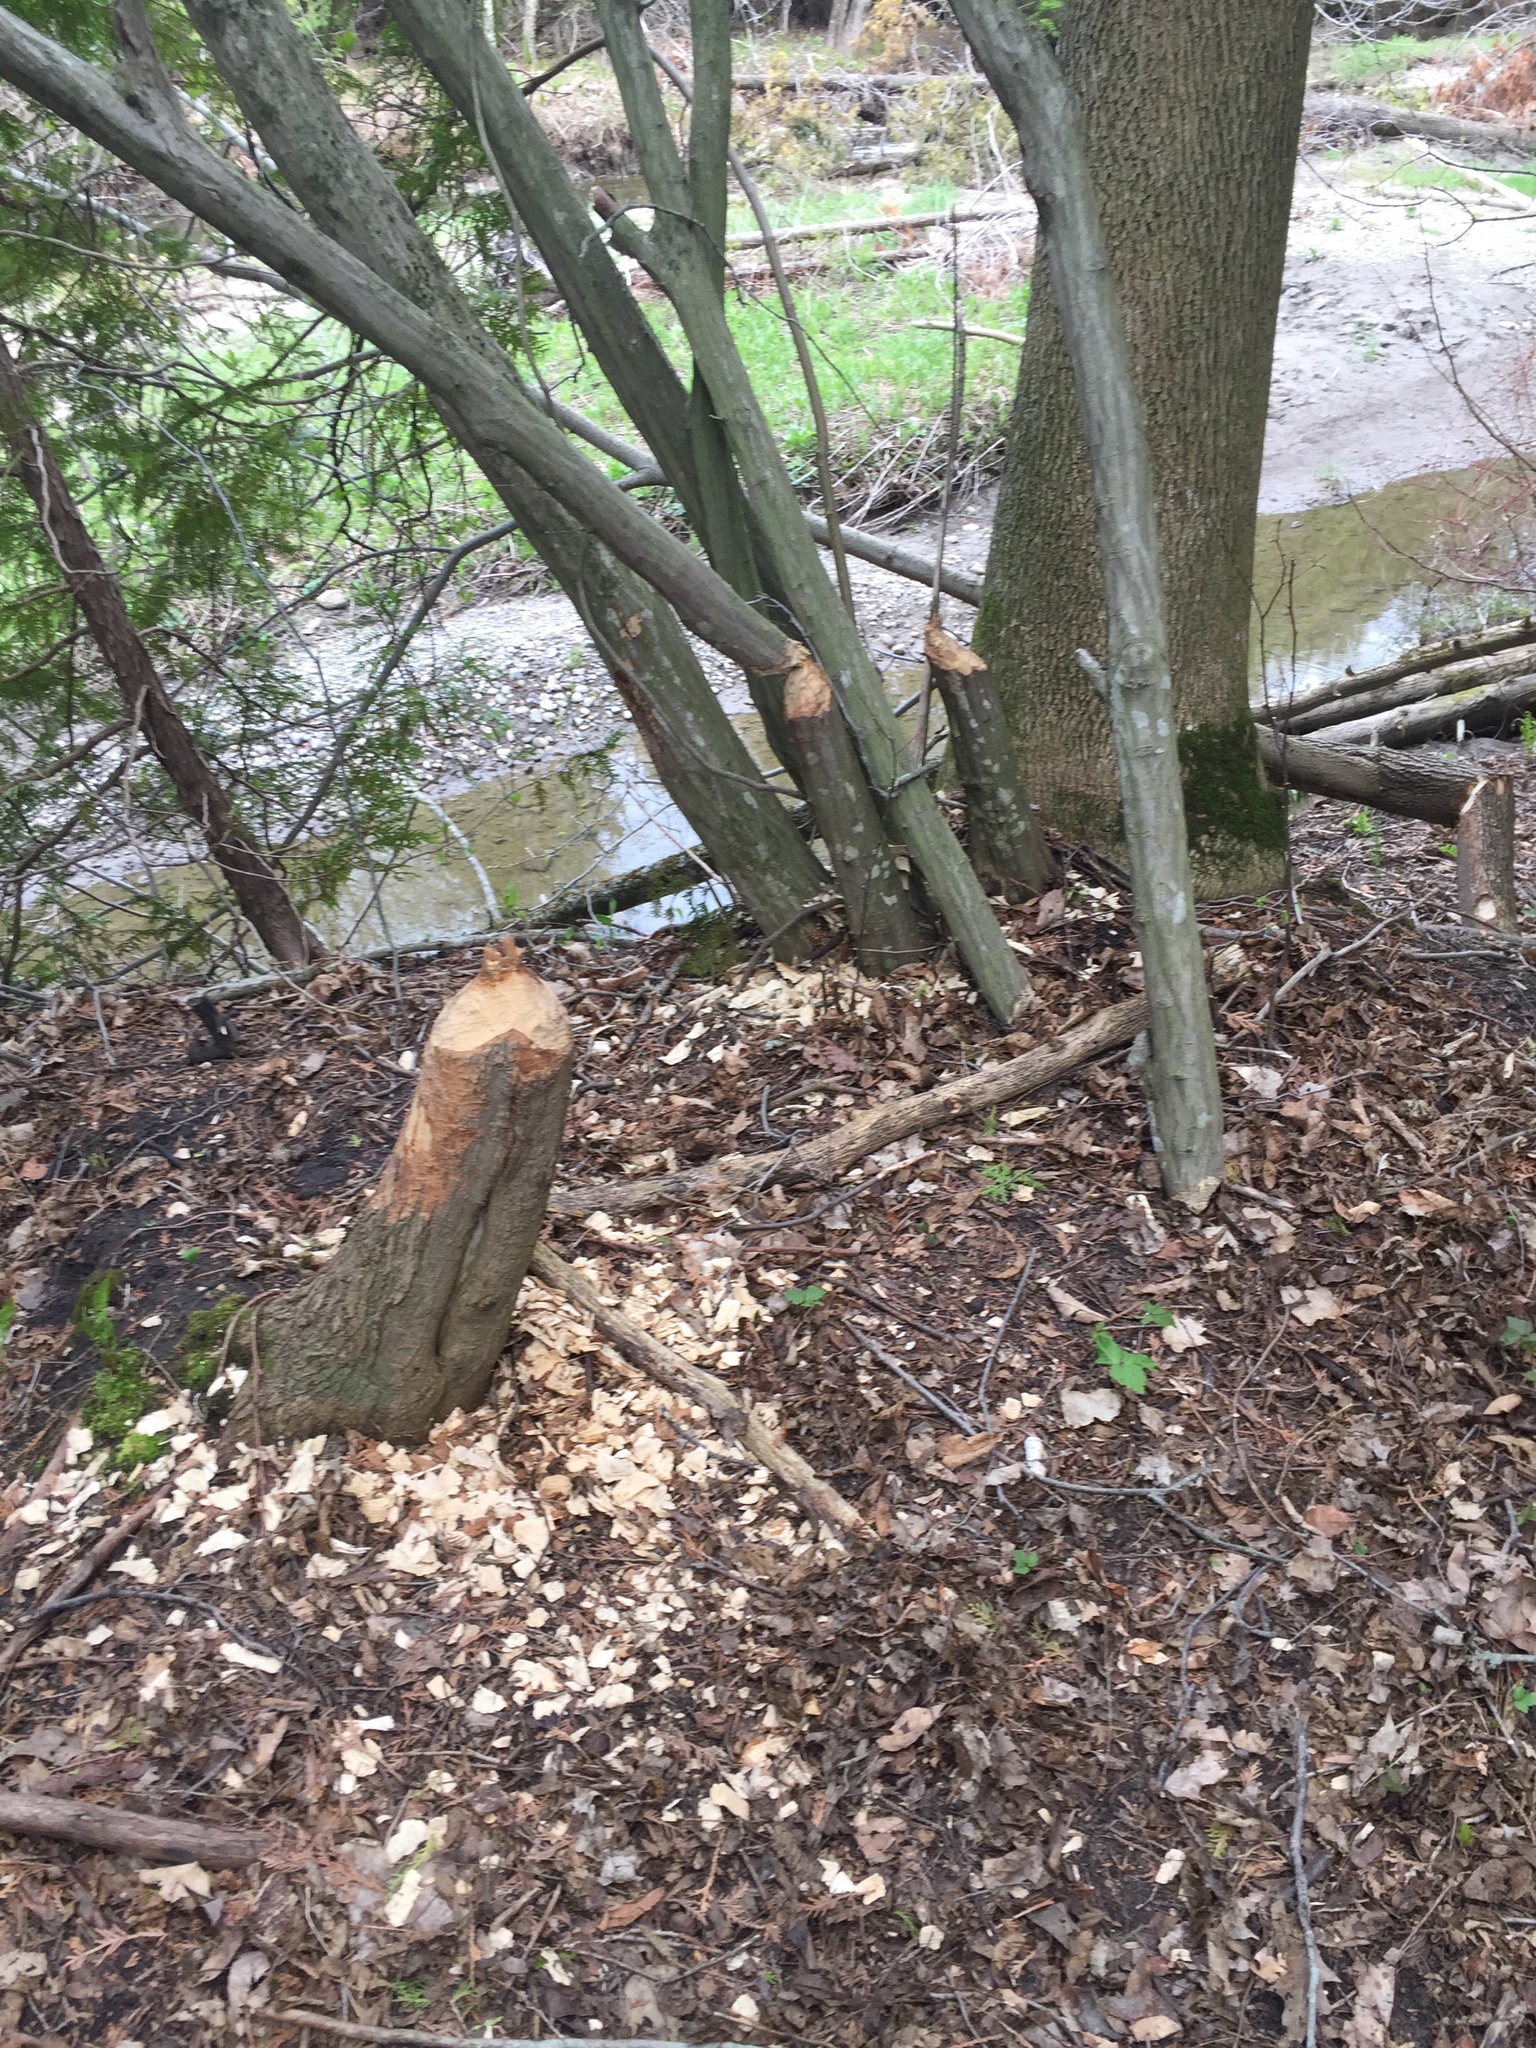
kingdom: Animalia
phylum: Chordata
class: Mammalia
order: Rodentia
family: Castoridae
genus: Castor
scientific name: Castor canadensis
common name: American beaver
